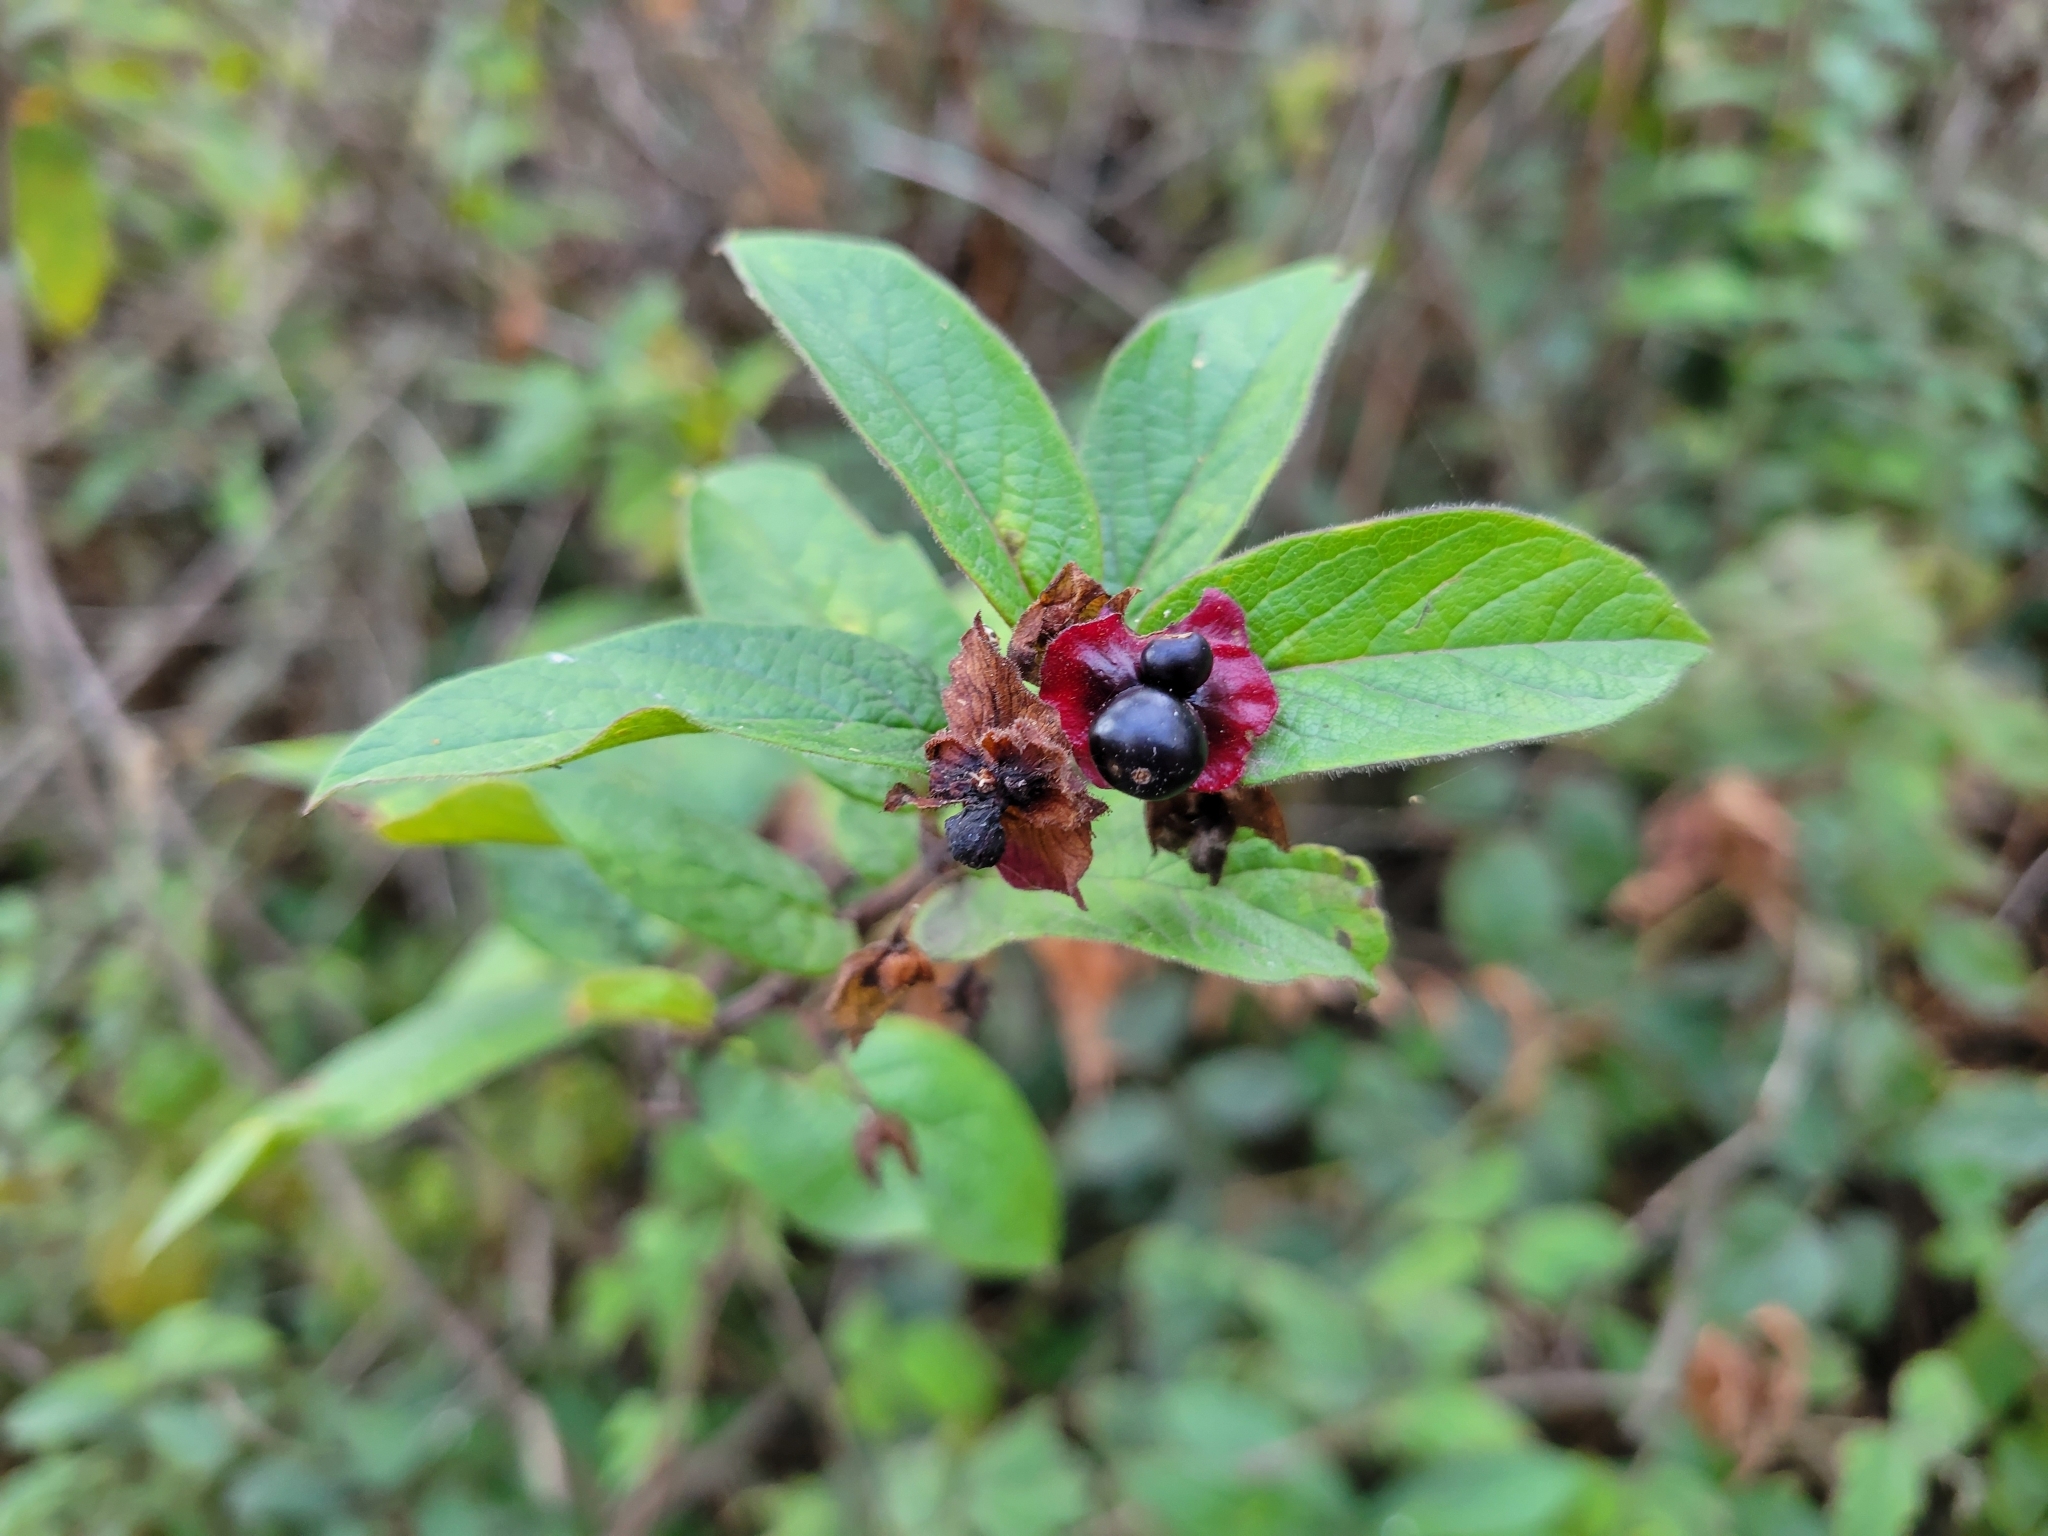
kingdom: Plantae
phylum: Tracheophyta
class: Magnoliopsida
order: Dipsacales
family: Caprifoliaceae
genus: Lonicera
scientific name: Lonicera involucrata
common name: Californian honeysuckle
